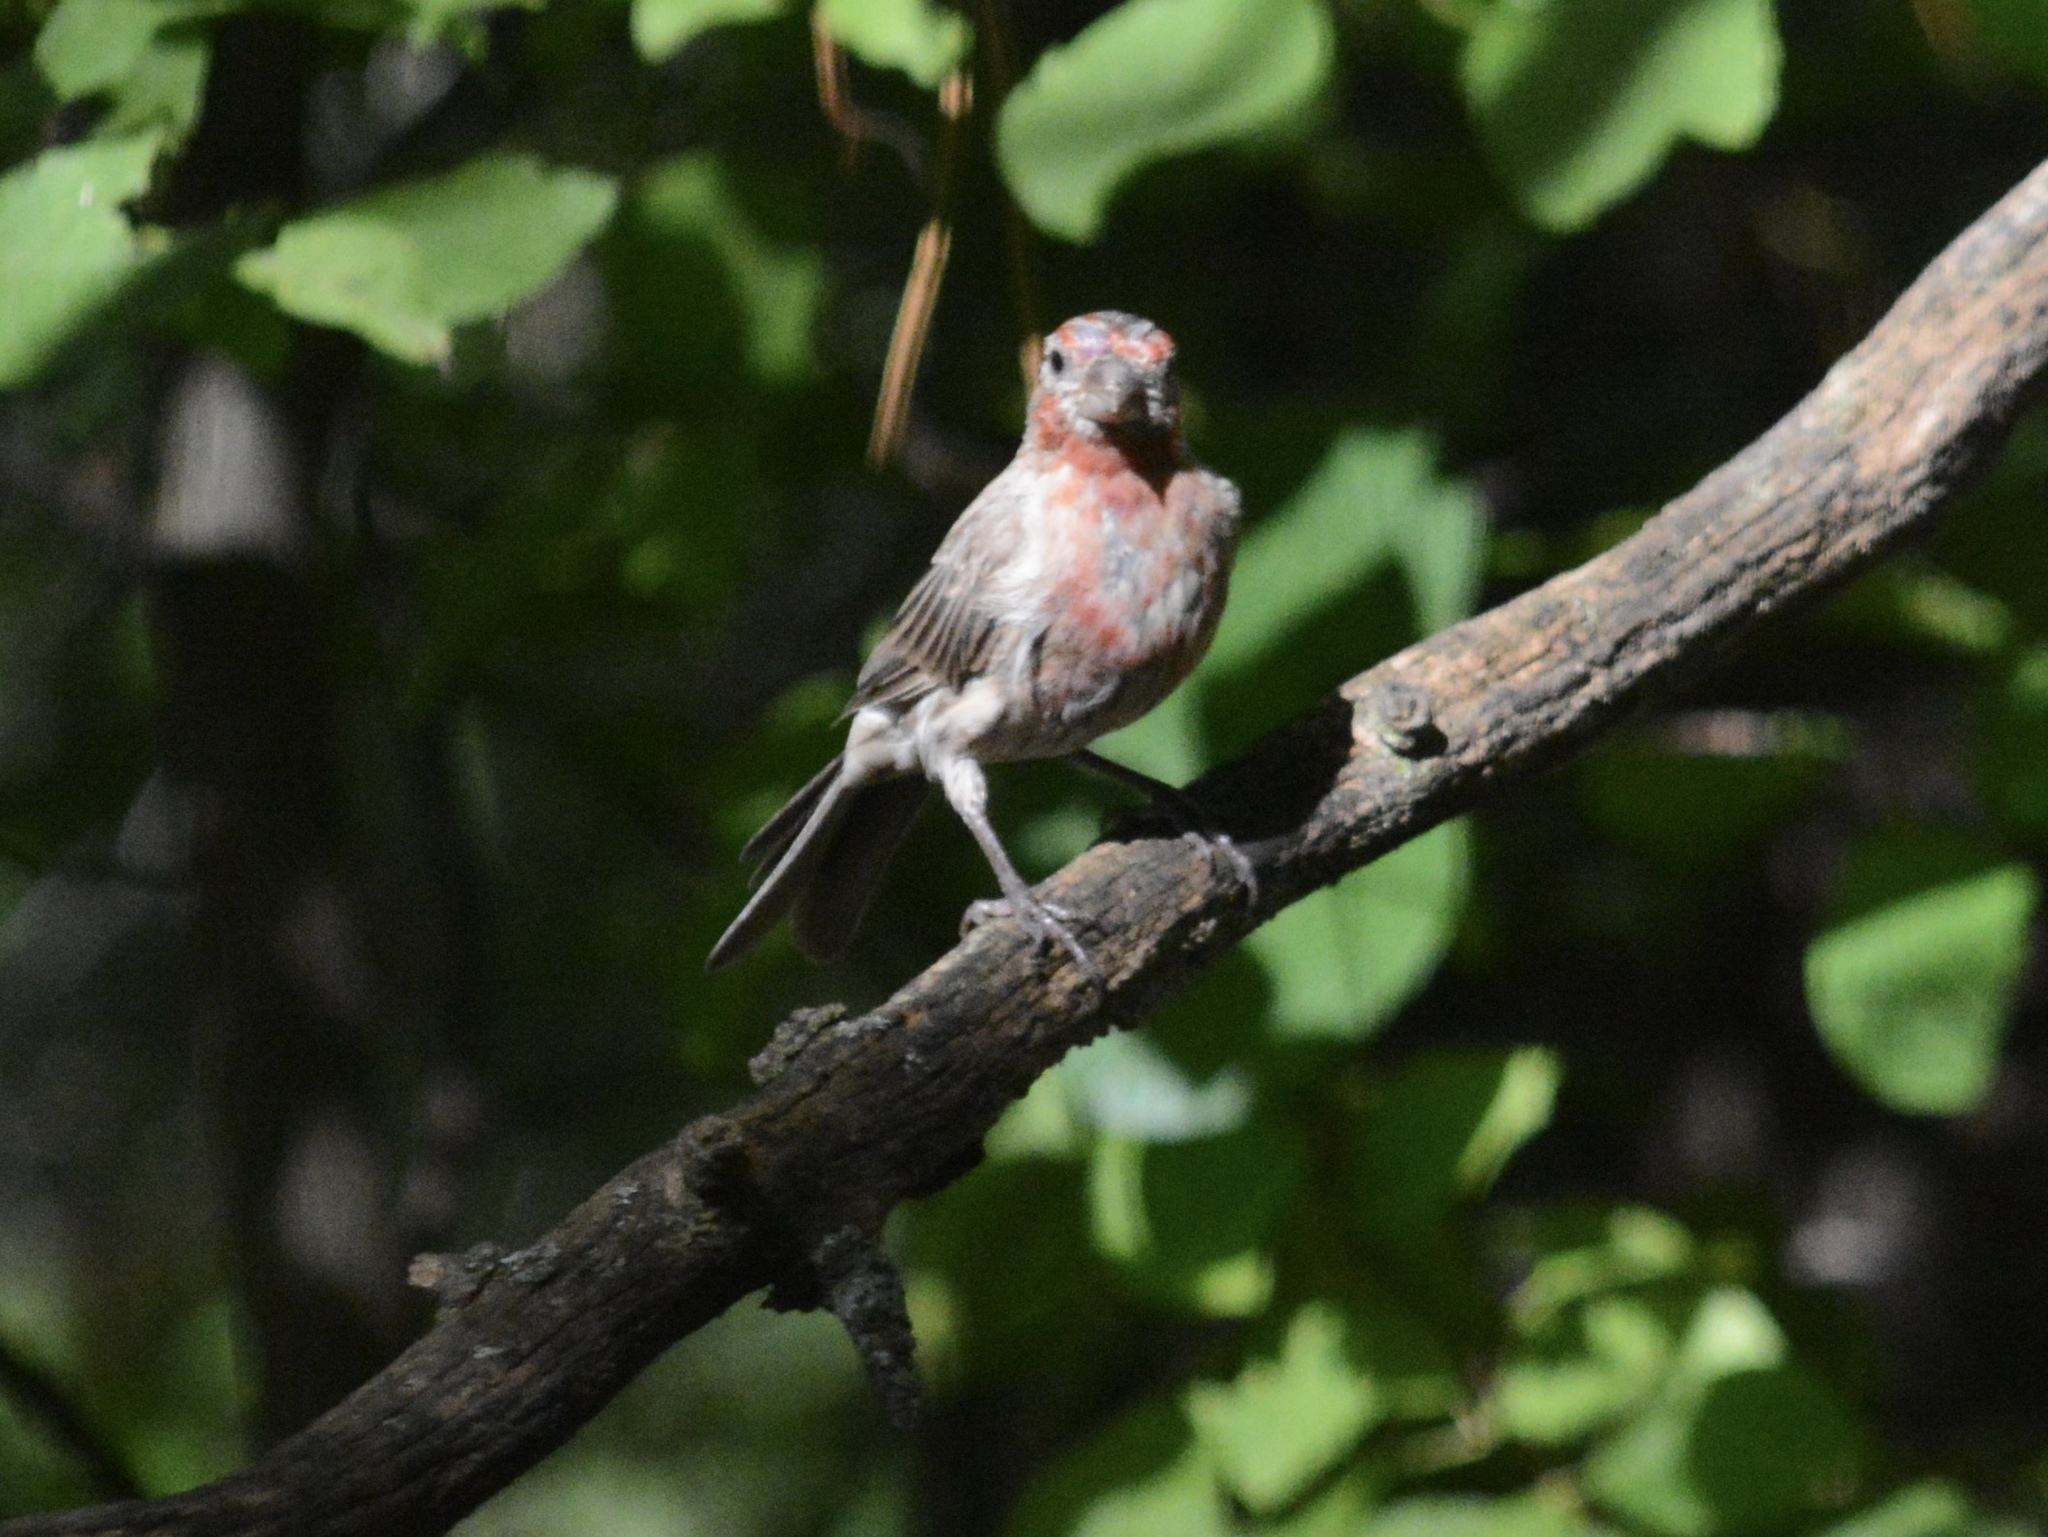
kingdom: Animalia
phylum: Chordata
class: Aves
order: Passeriformes
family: Fringillidae
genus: Haemorhous
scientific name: Haemorhous mexicanus
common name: House finch
